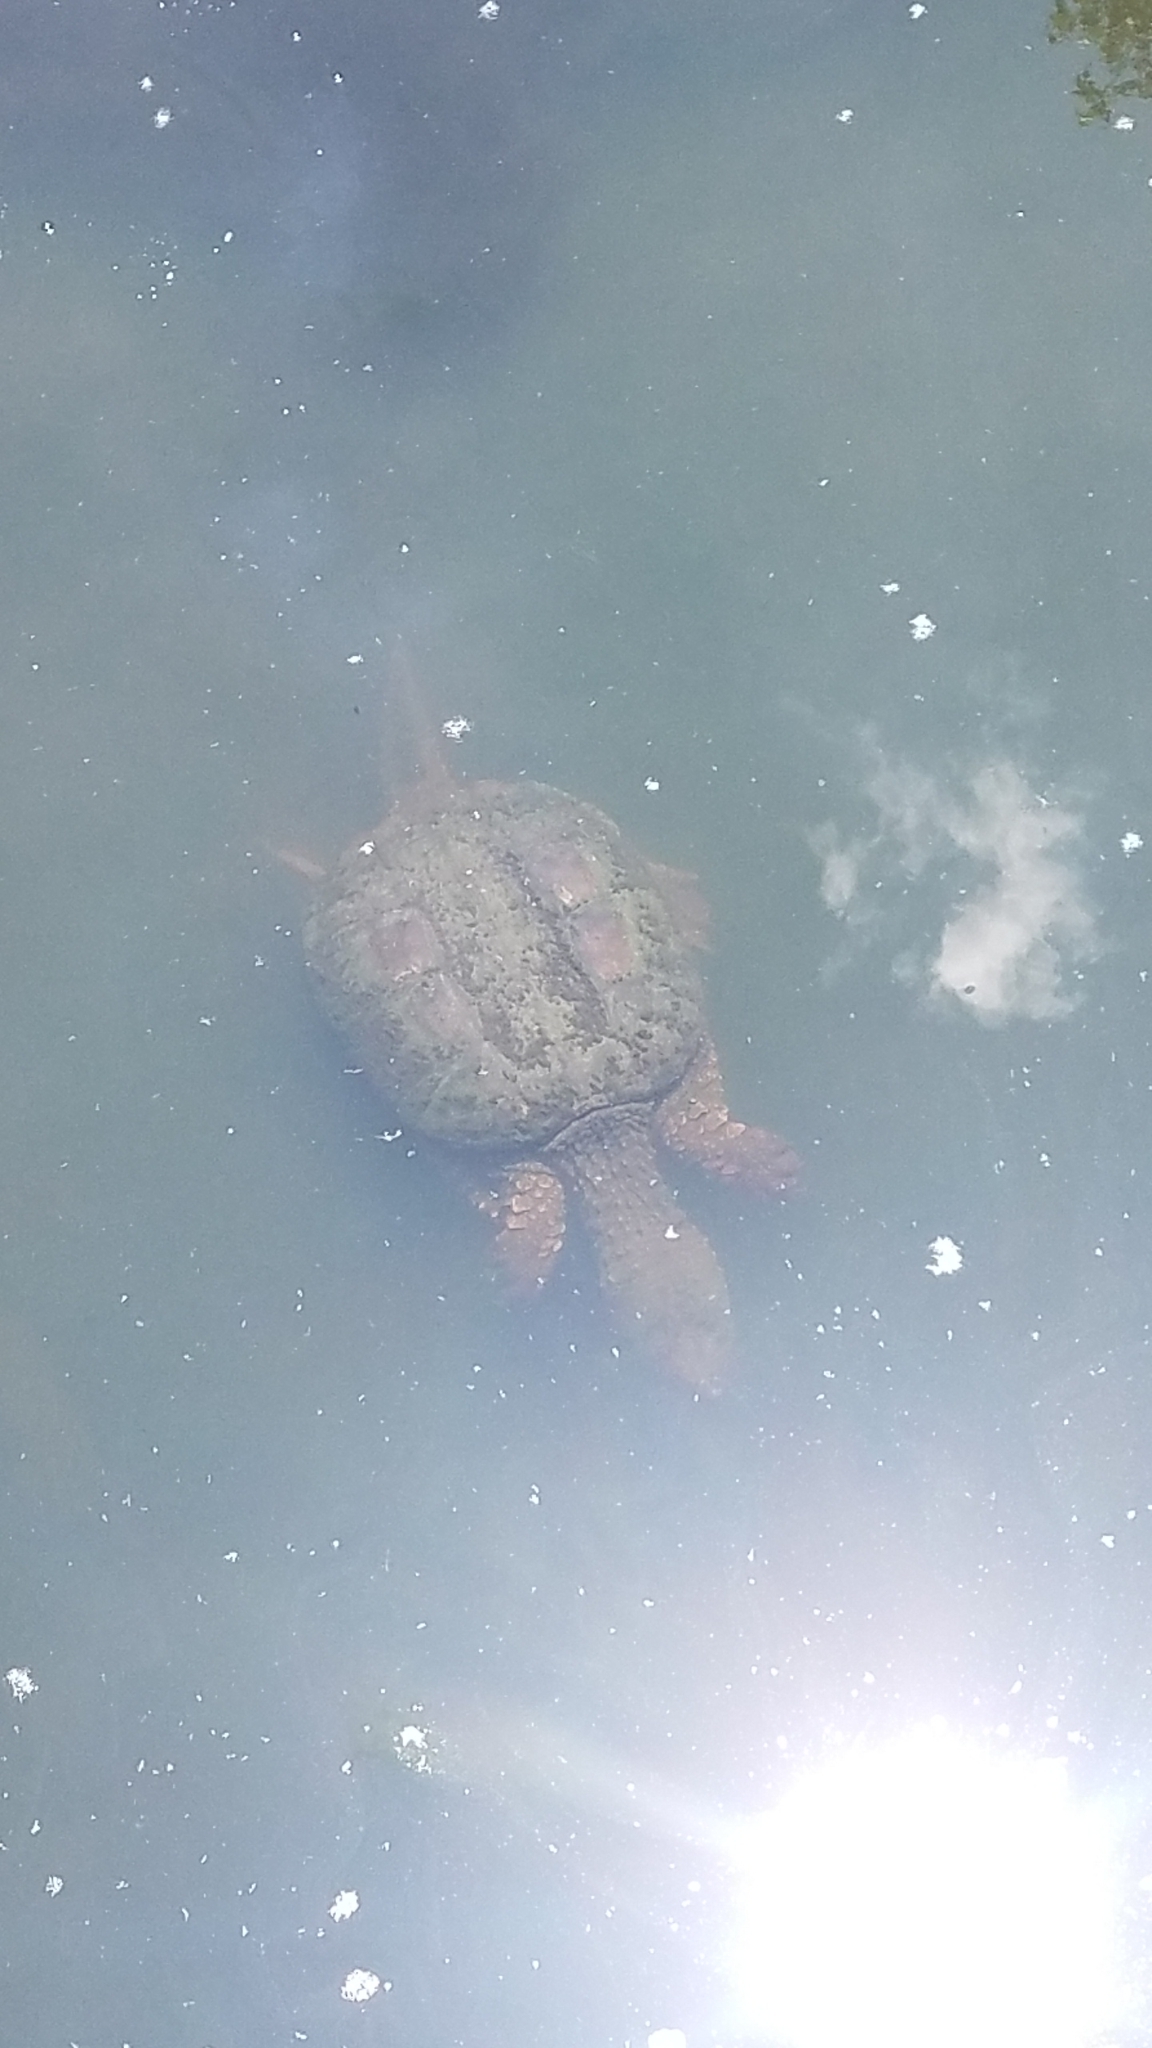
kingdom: Animalia
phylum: Chordata
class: Testudines
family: Chelydridae
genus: Chelydra
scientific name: Chelydra serpentina
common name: Common snapping turtle
